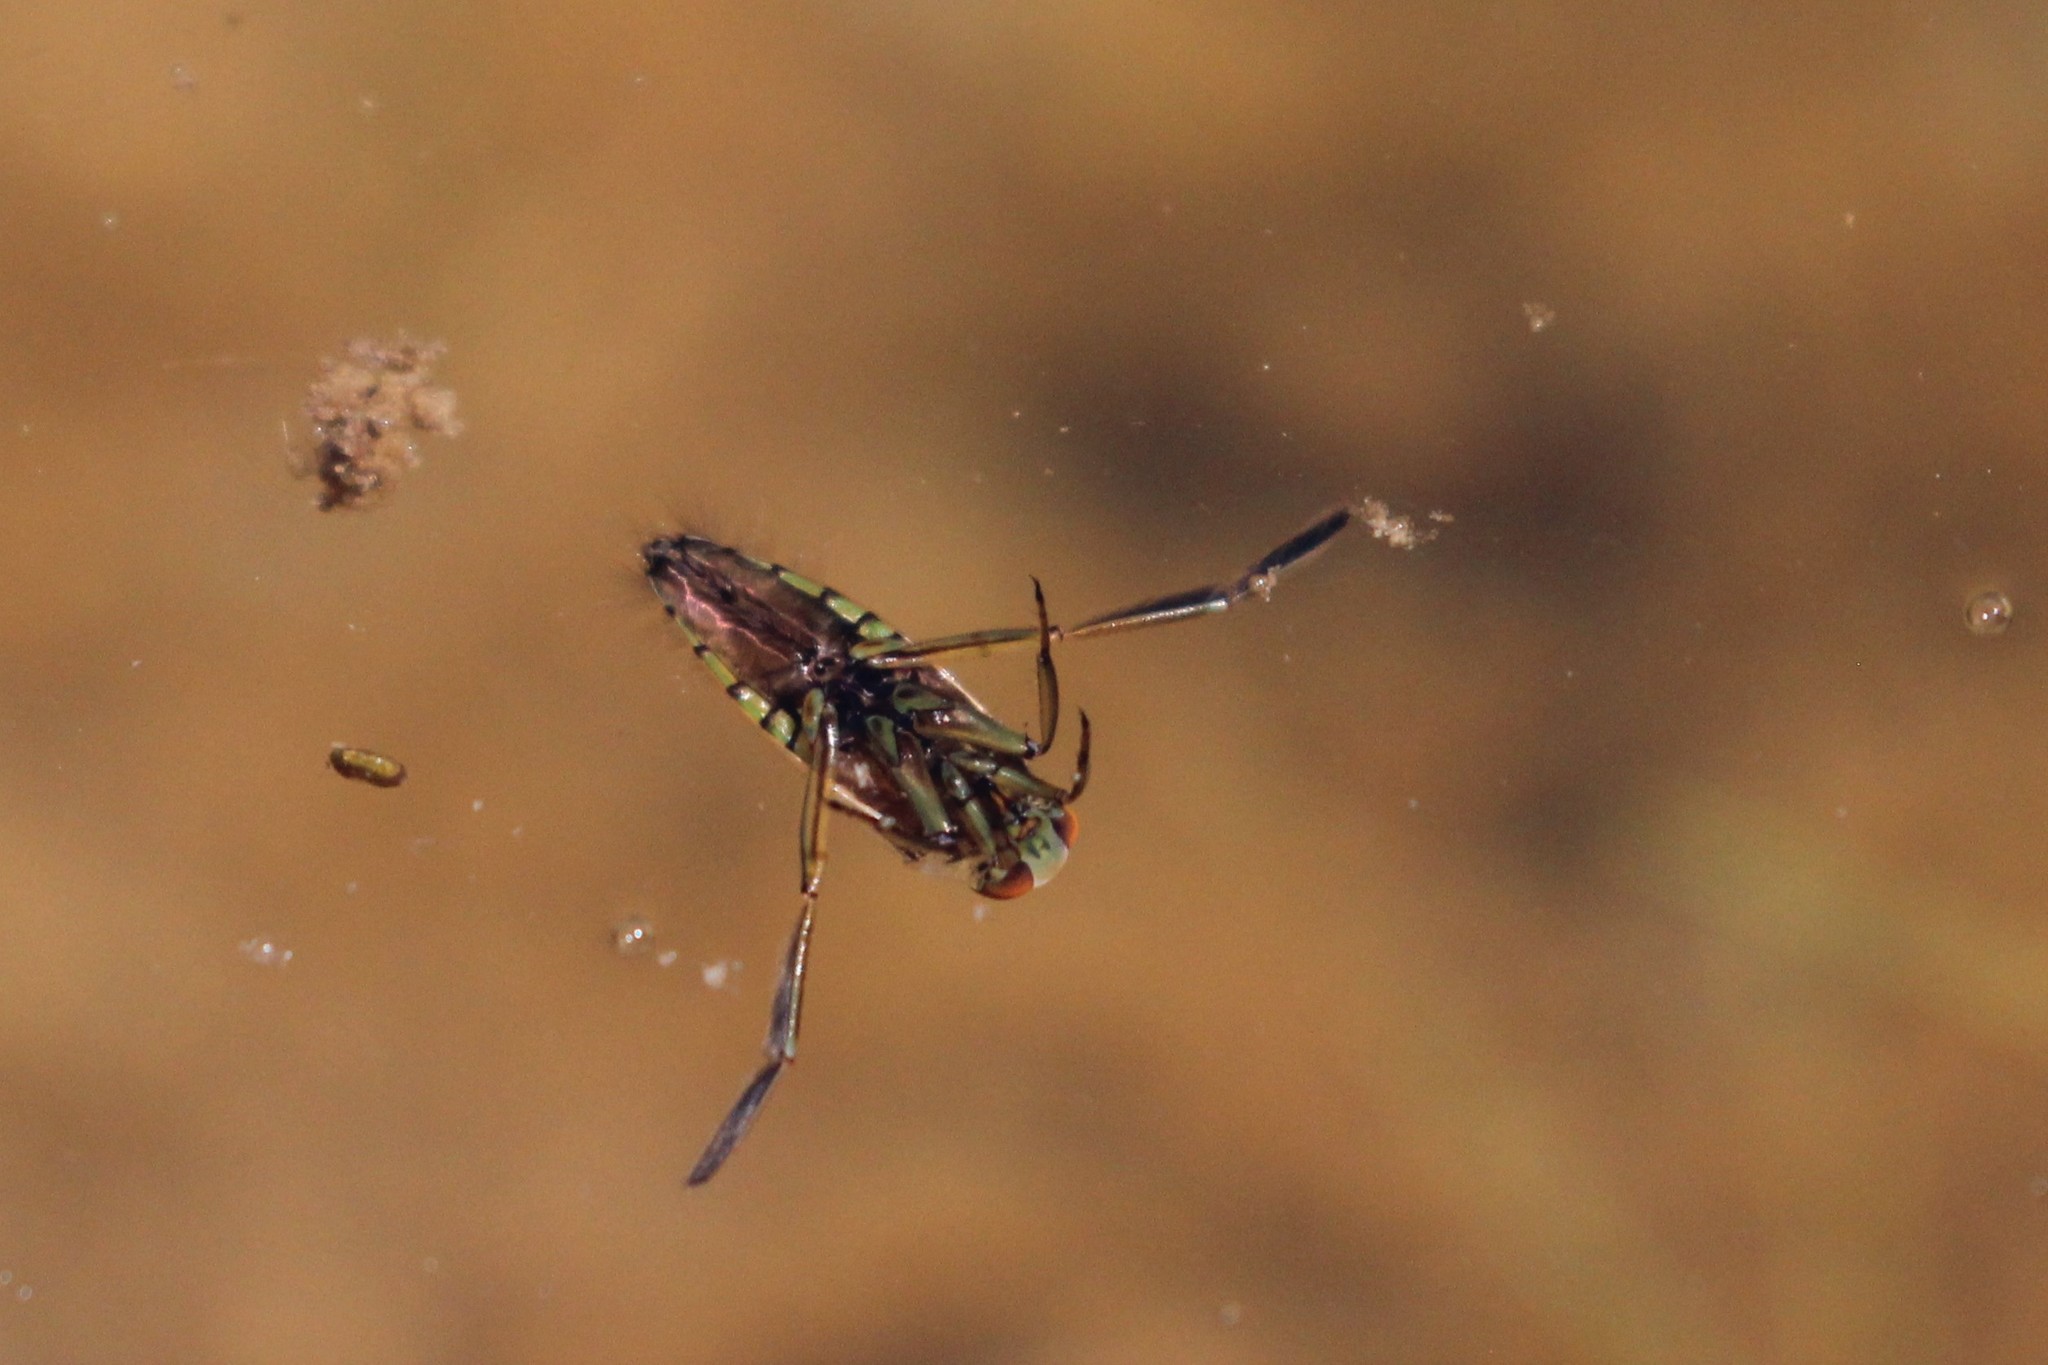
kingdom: Animalia
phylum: Arthropoda
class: Insecta
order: Hemiptera
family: Notonectidae
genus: Notonecta
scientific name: Notonecta
